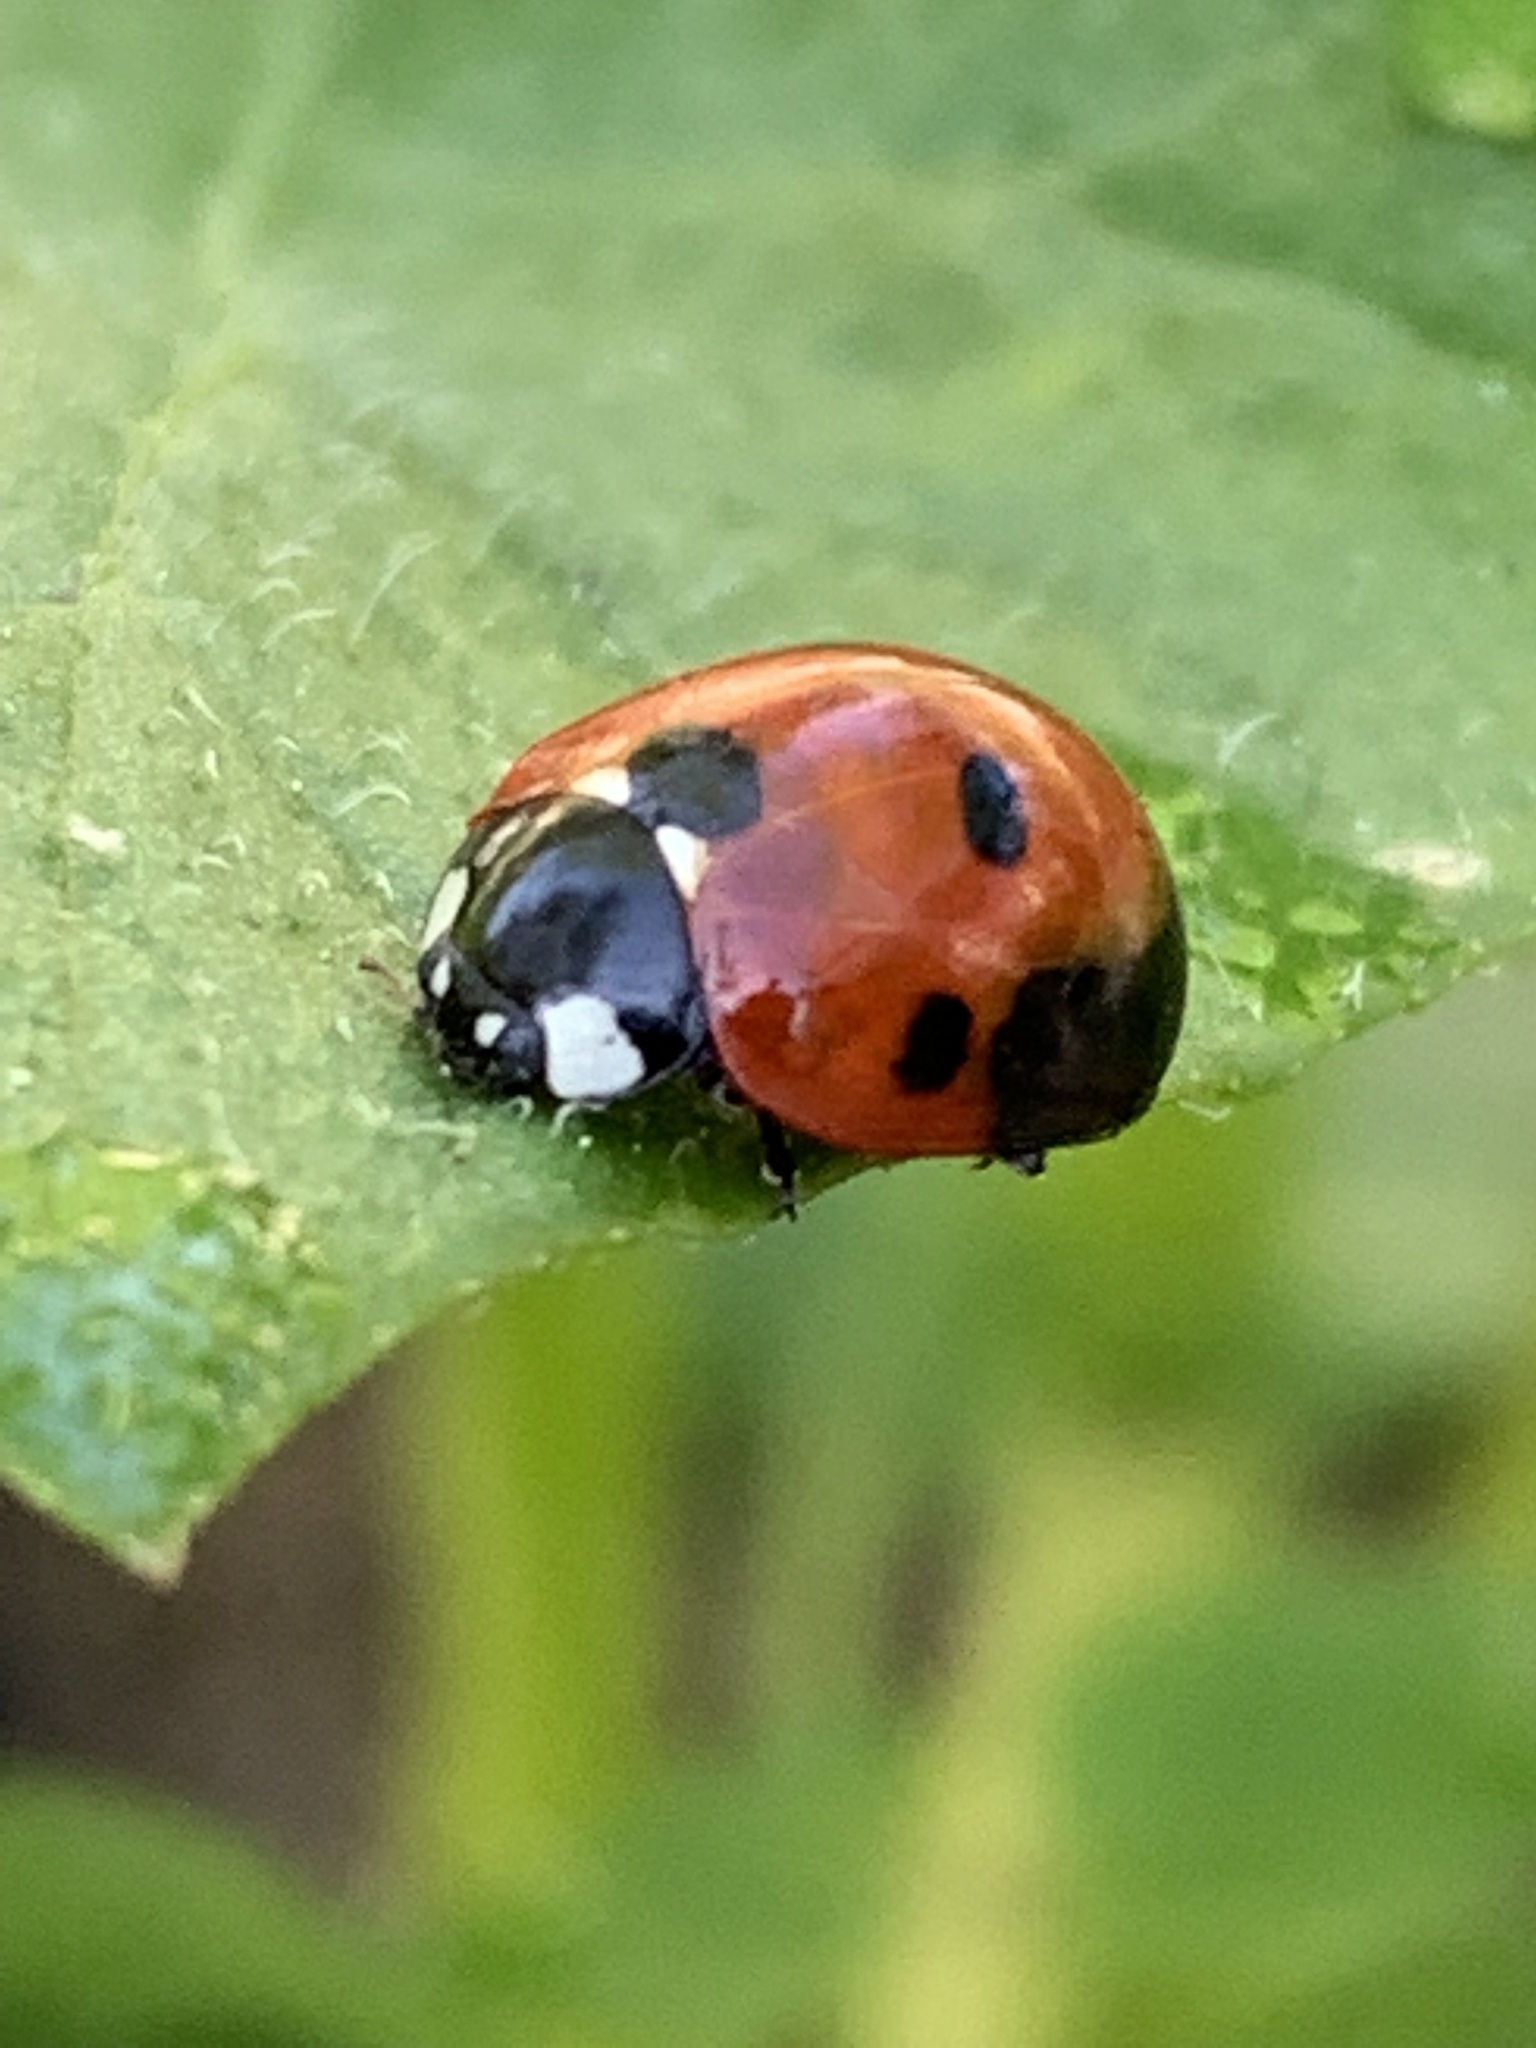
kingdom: Animalia
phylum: Arthropoda
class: Insecta
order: Coleoptera
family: Coccinellidae
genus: Coccinella
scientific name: Coccinella septempunctata
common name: Sevenspotted lady beetle
